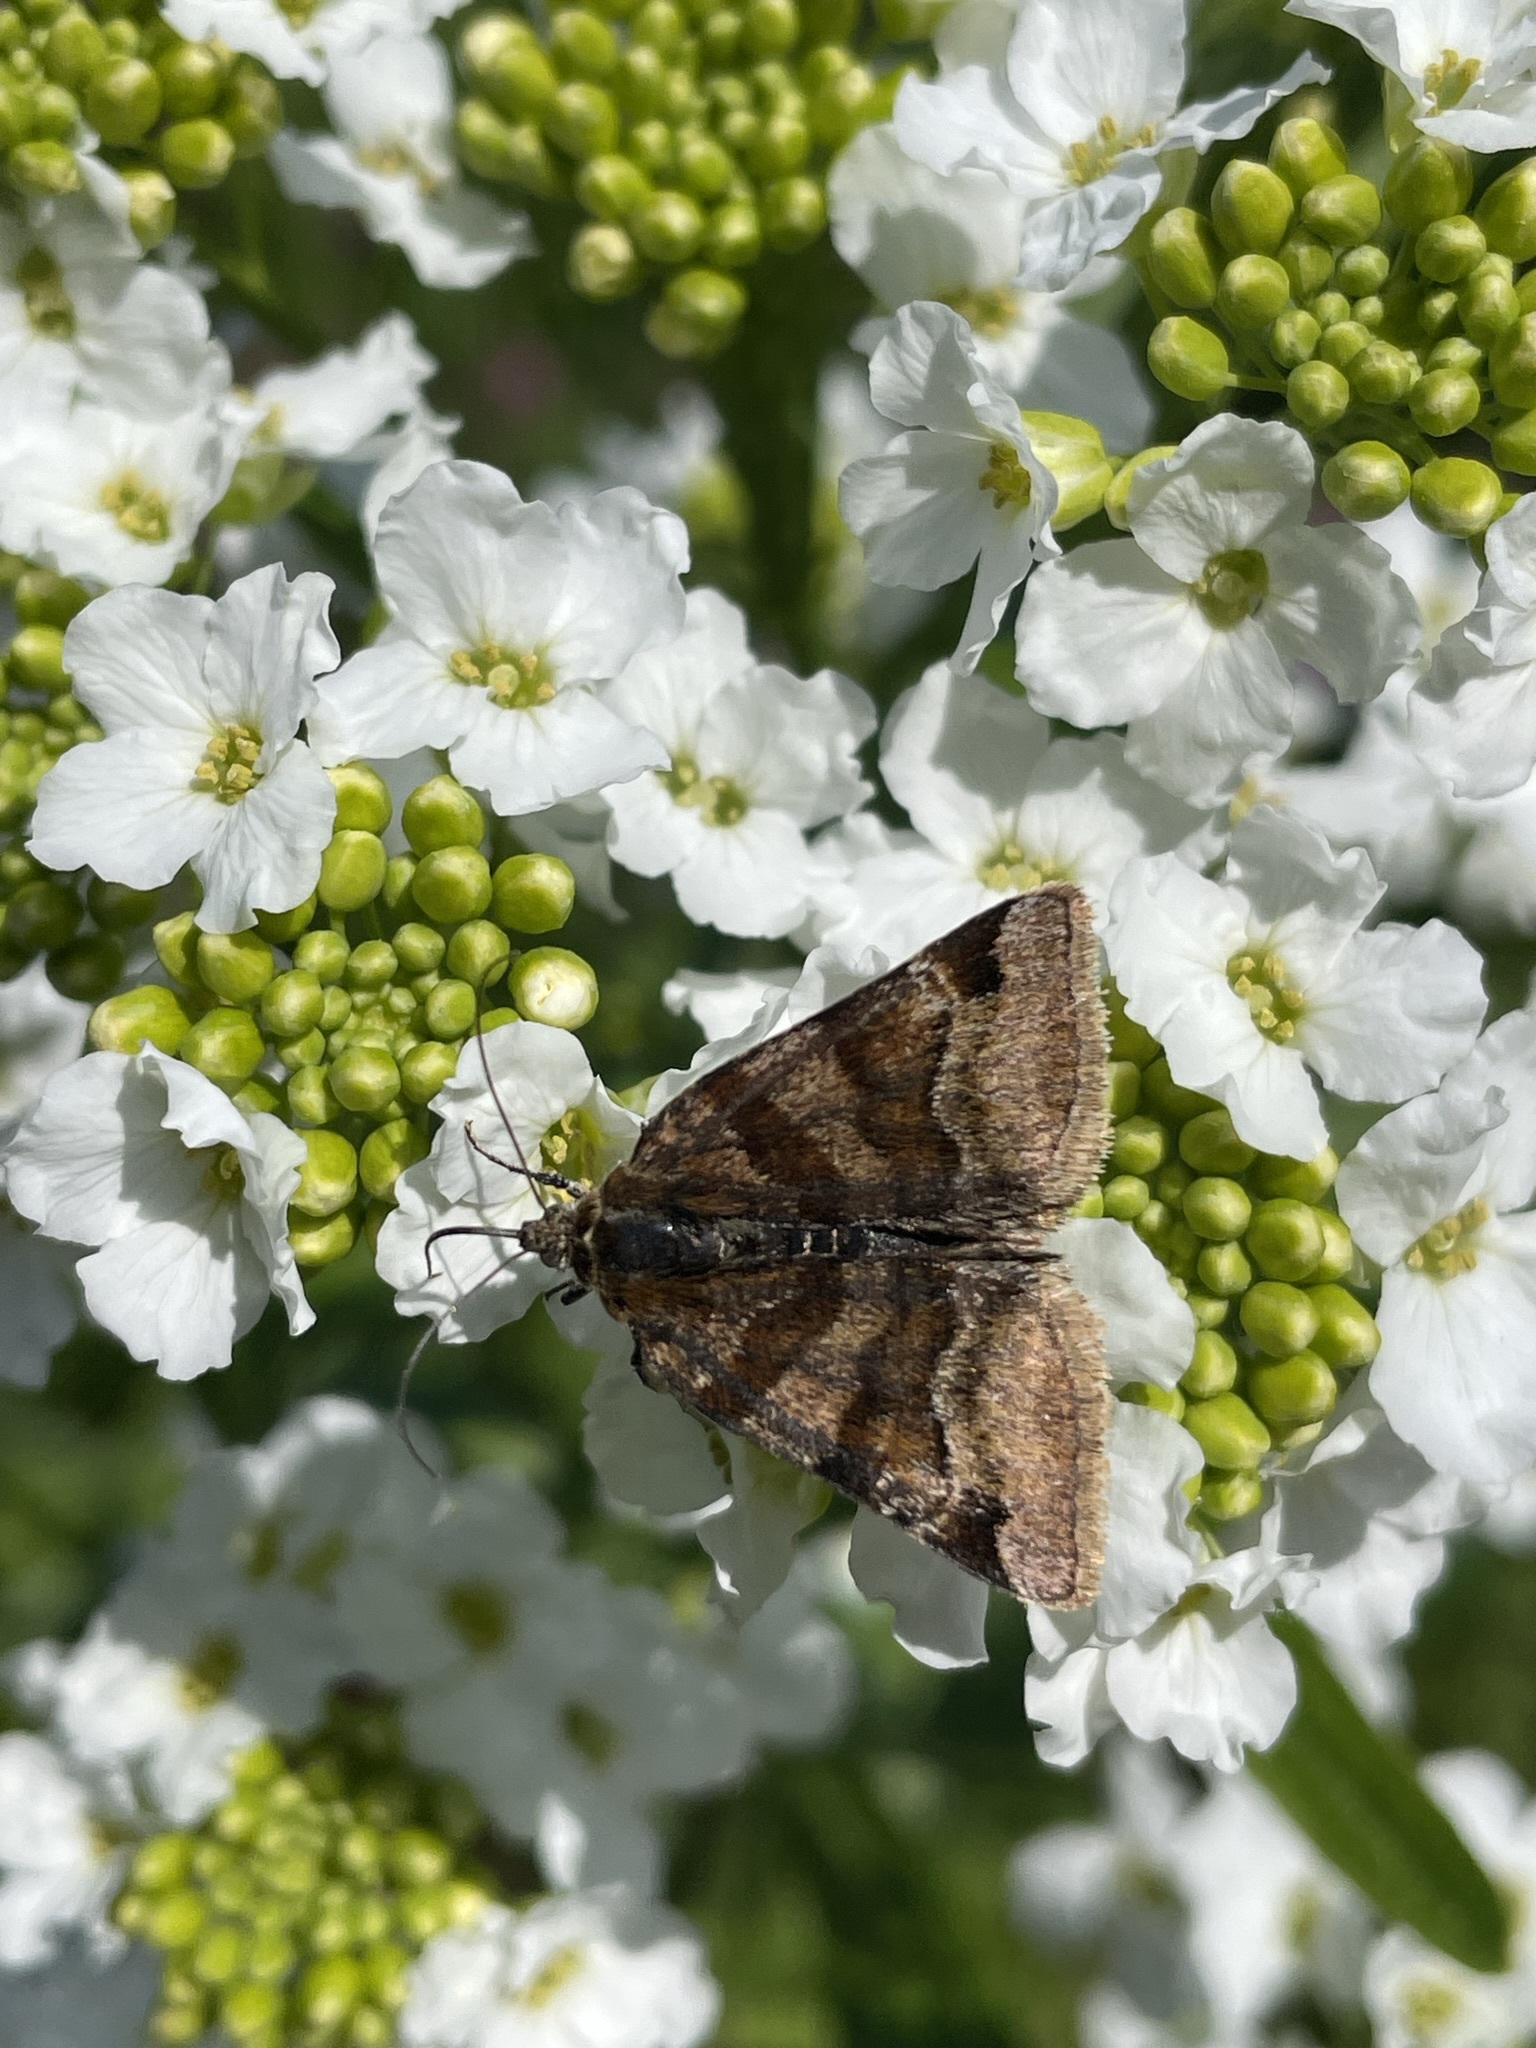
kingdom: Animalia
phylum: Arthropoda
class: Insecta
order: Lepidoptera
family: Erebidae
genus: Euclidia
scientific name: Euclidia glyphica
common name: Burnet companion
